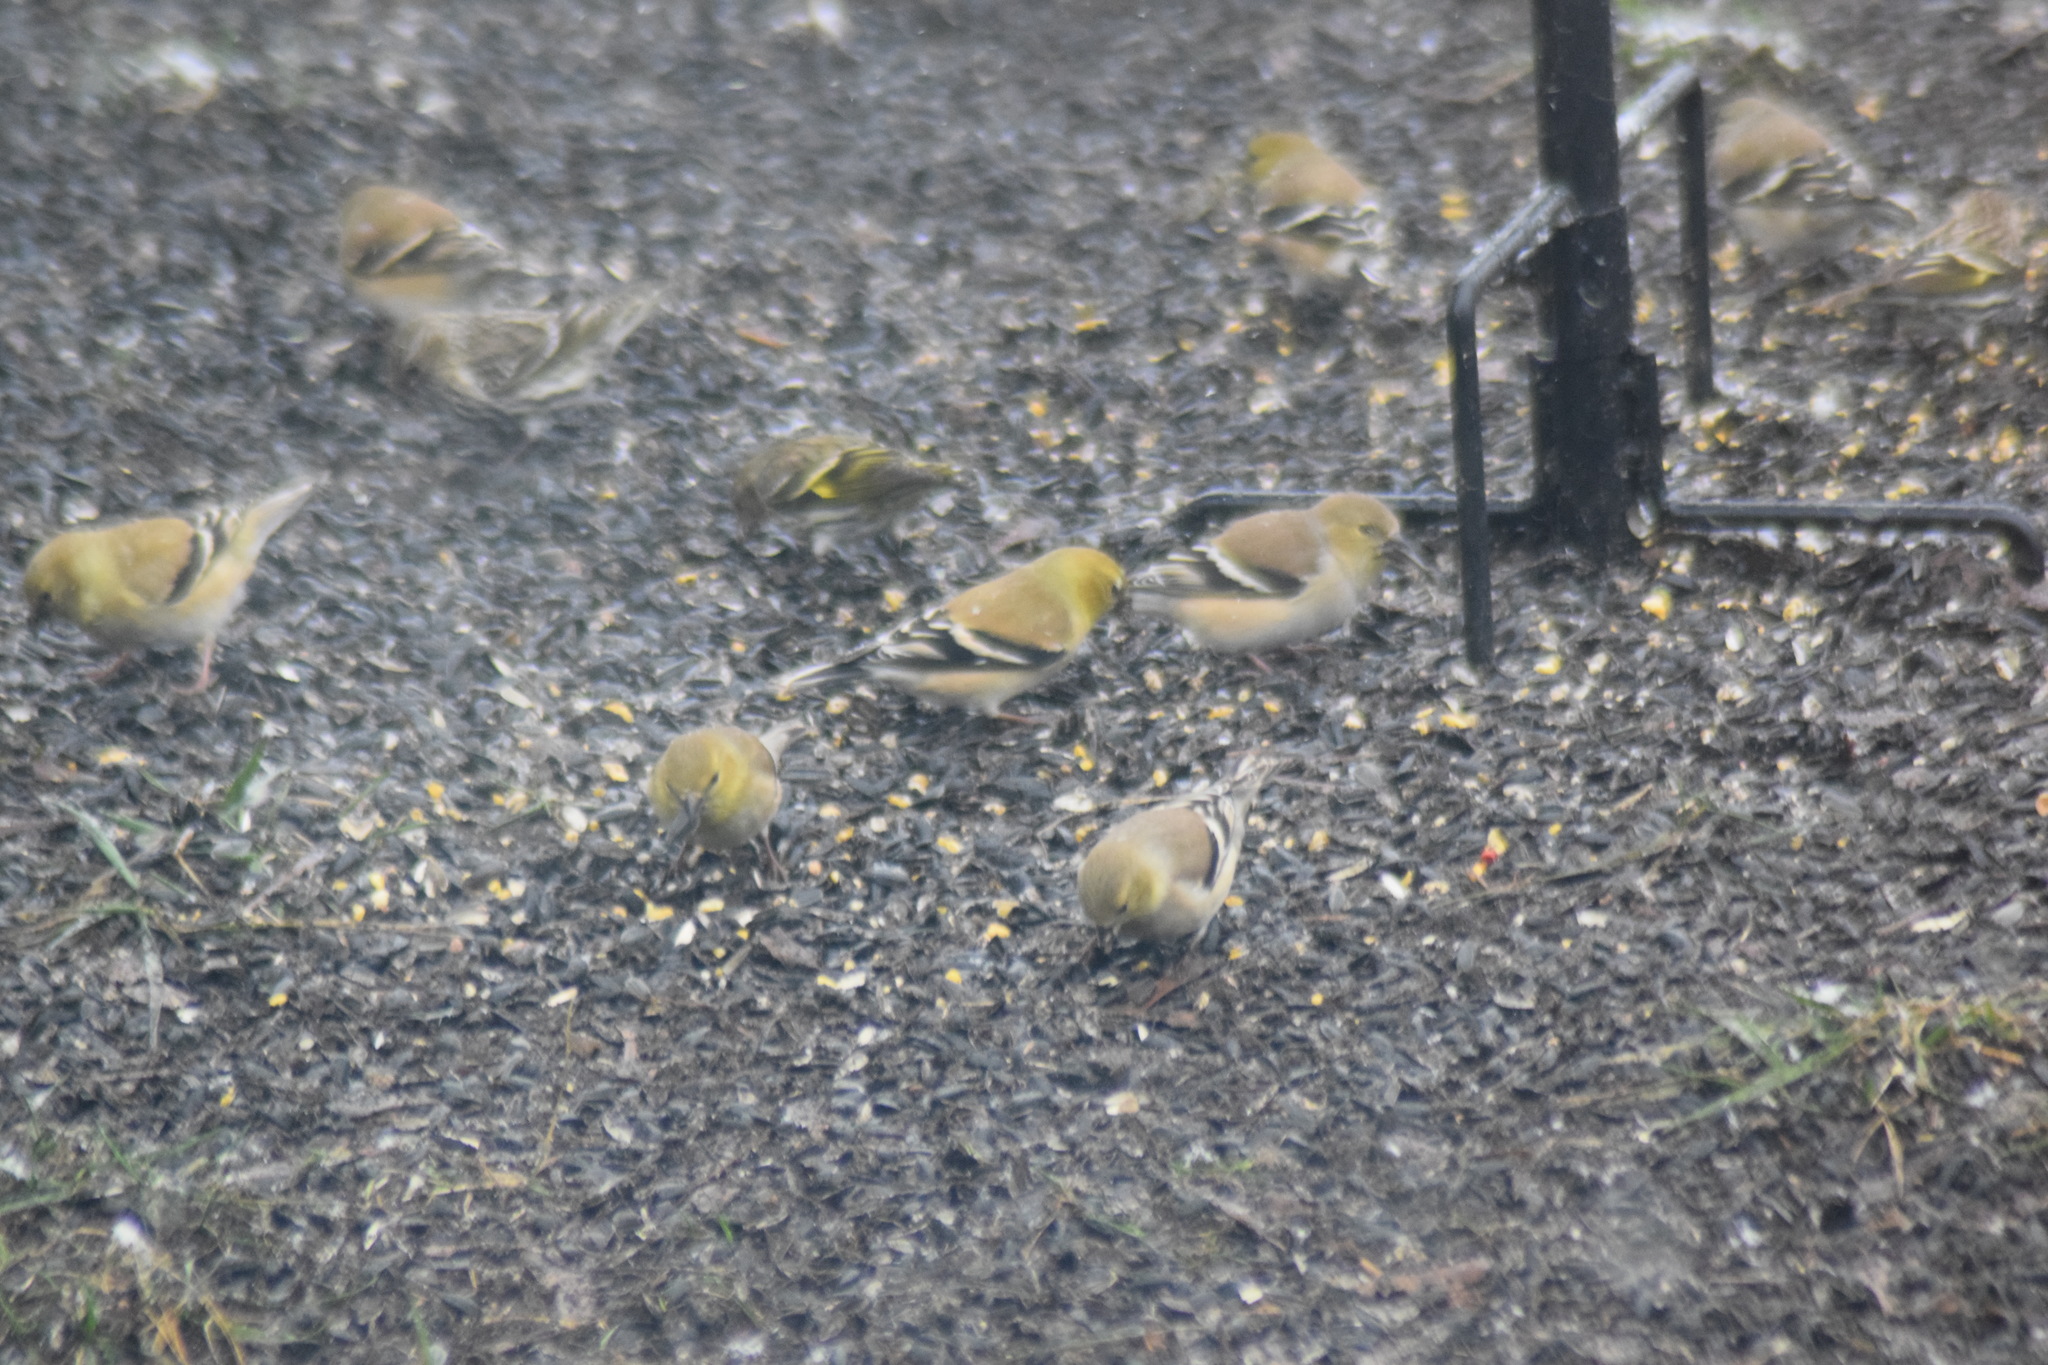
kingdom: Animalia
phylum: Chordata
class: Aves
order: Passeriformes
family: Fringillidae
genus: Spinus
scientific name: Spinus tristis
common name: American goldfinch
